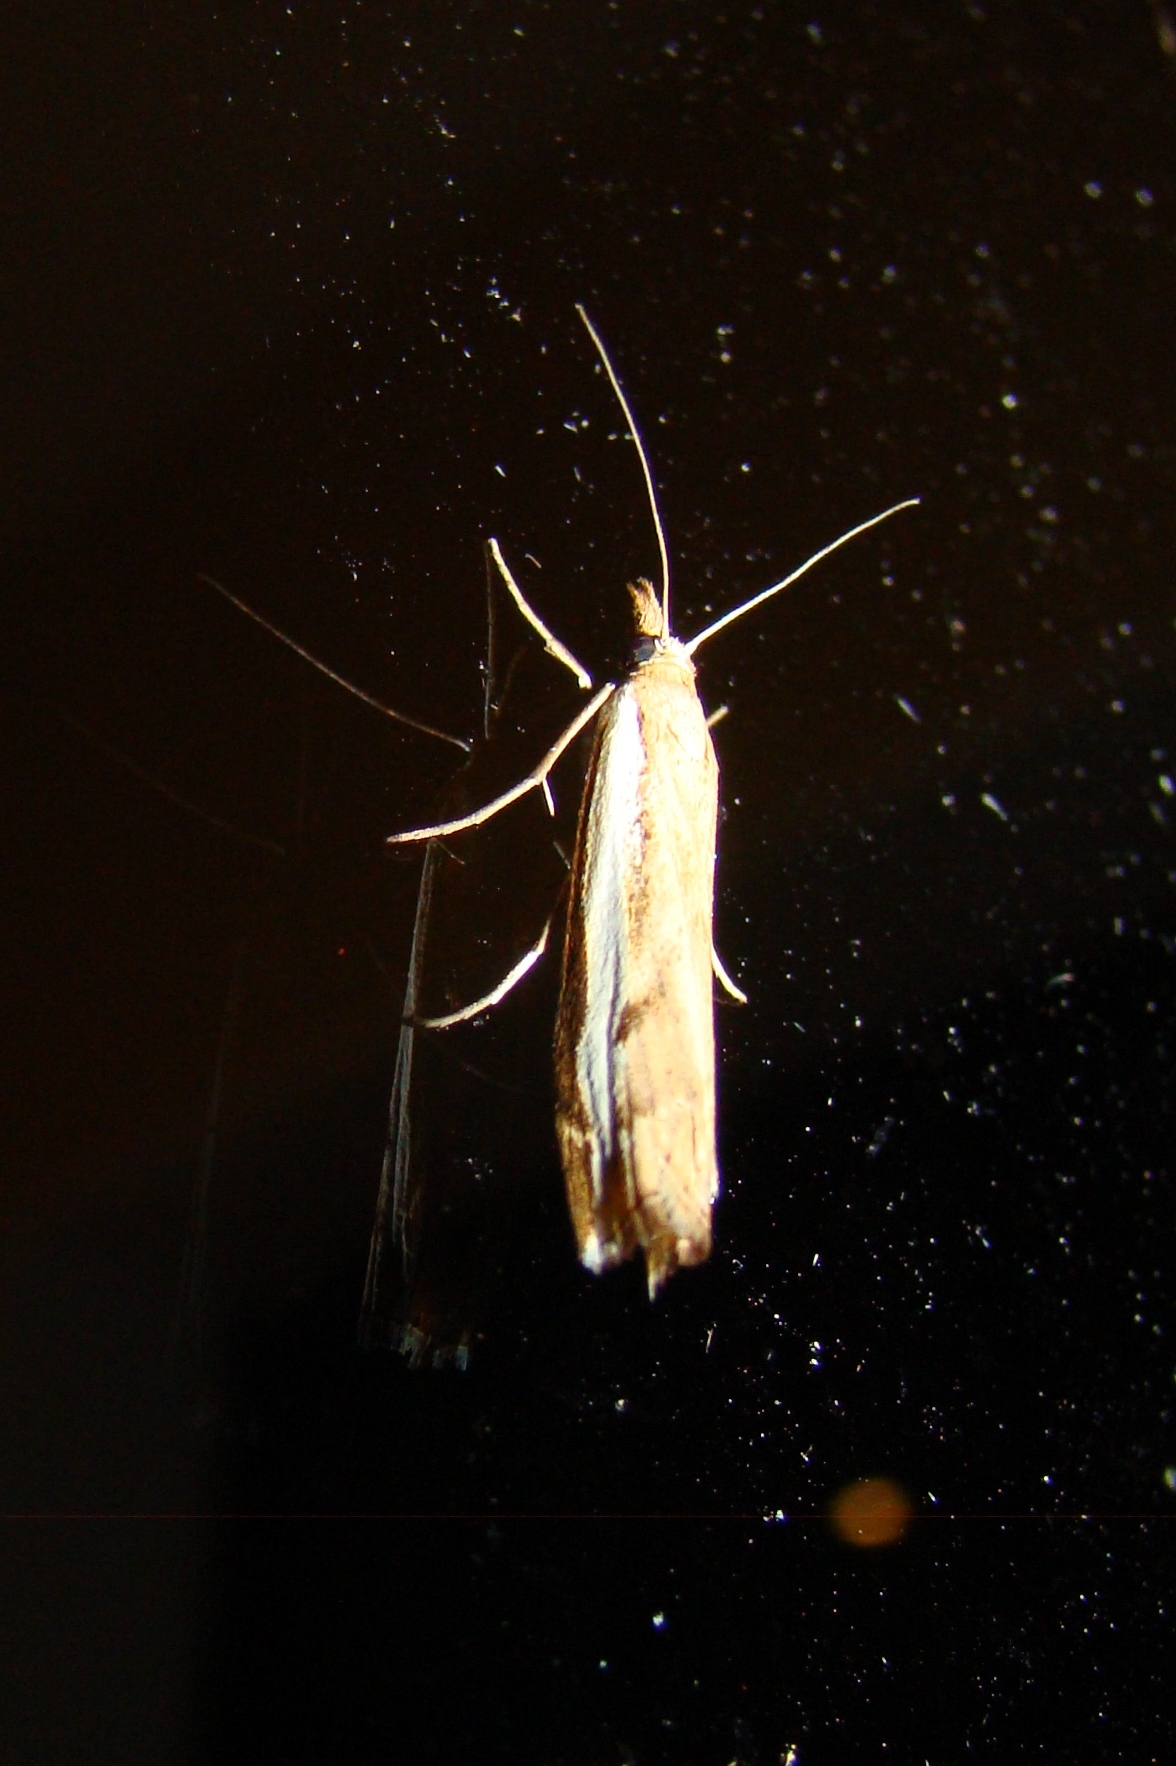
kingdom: Animalia
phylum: Arthropoda
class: Insecta
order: Lepidoptera
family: Crambidae
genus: Orocrambus
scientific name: Orocrambus flexuosellus
